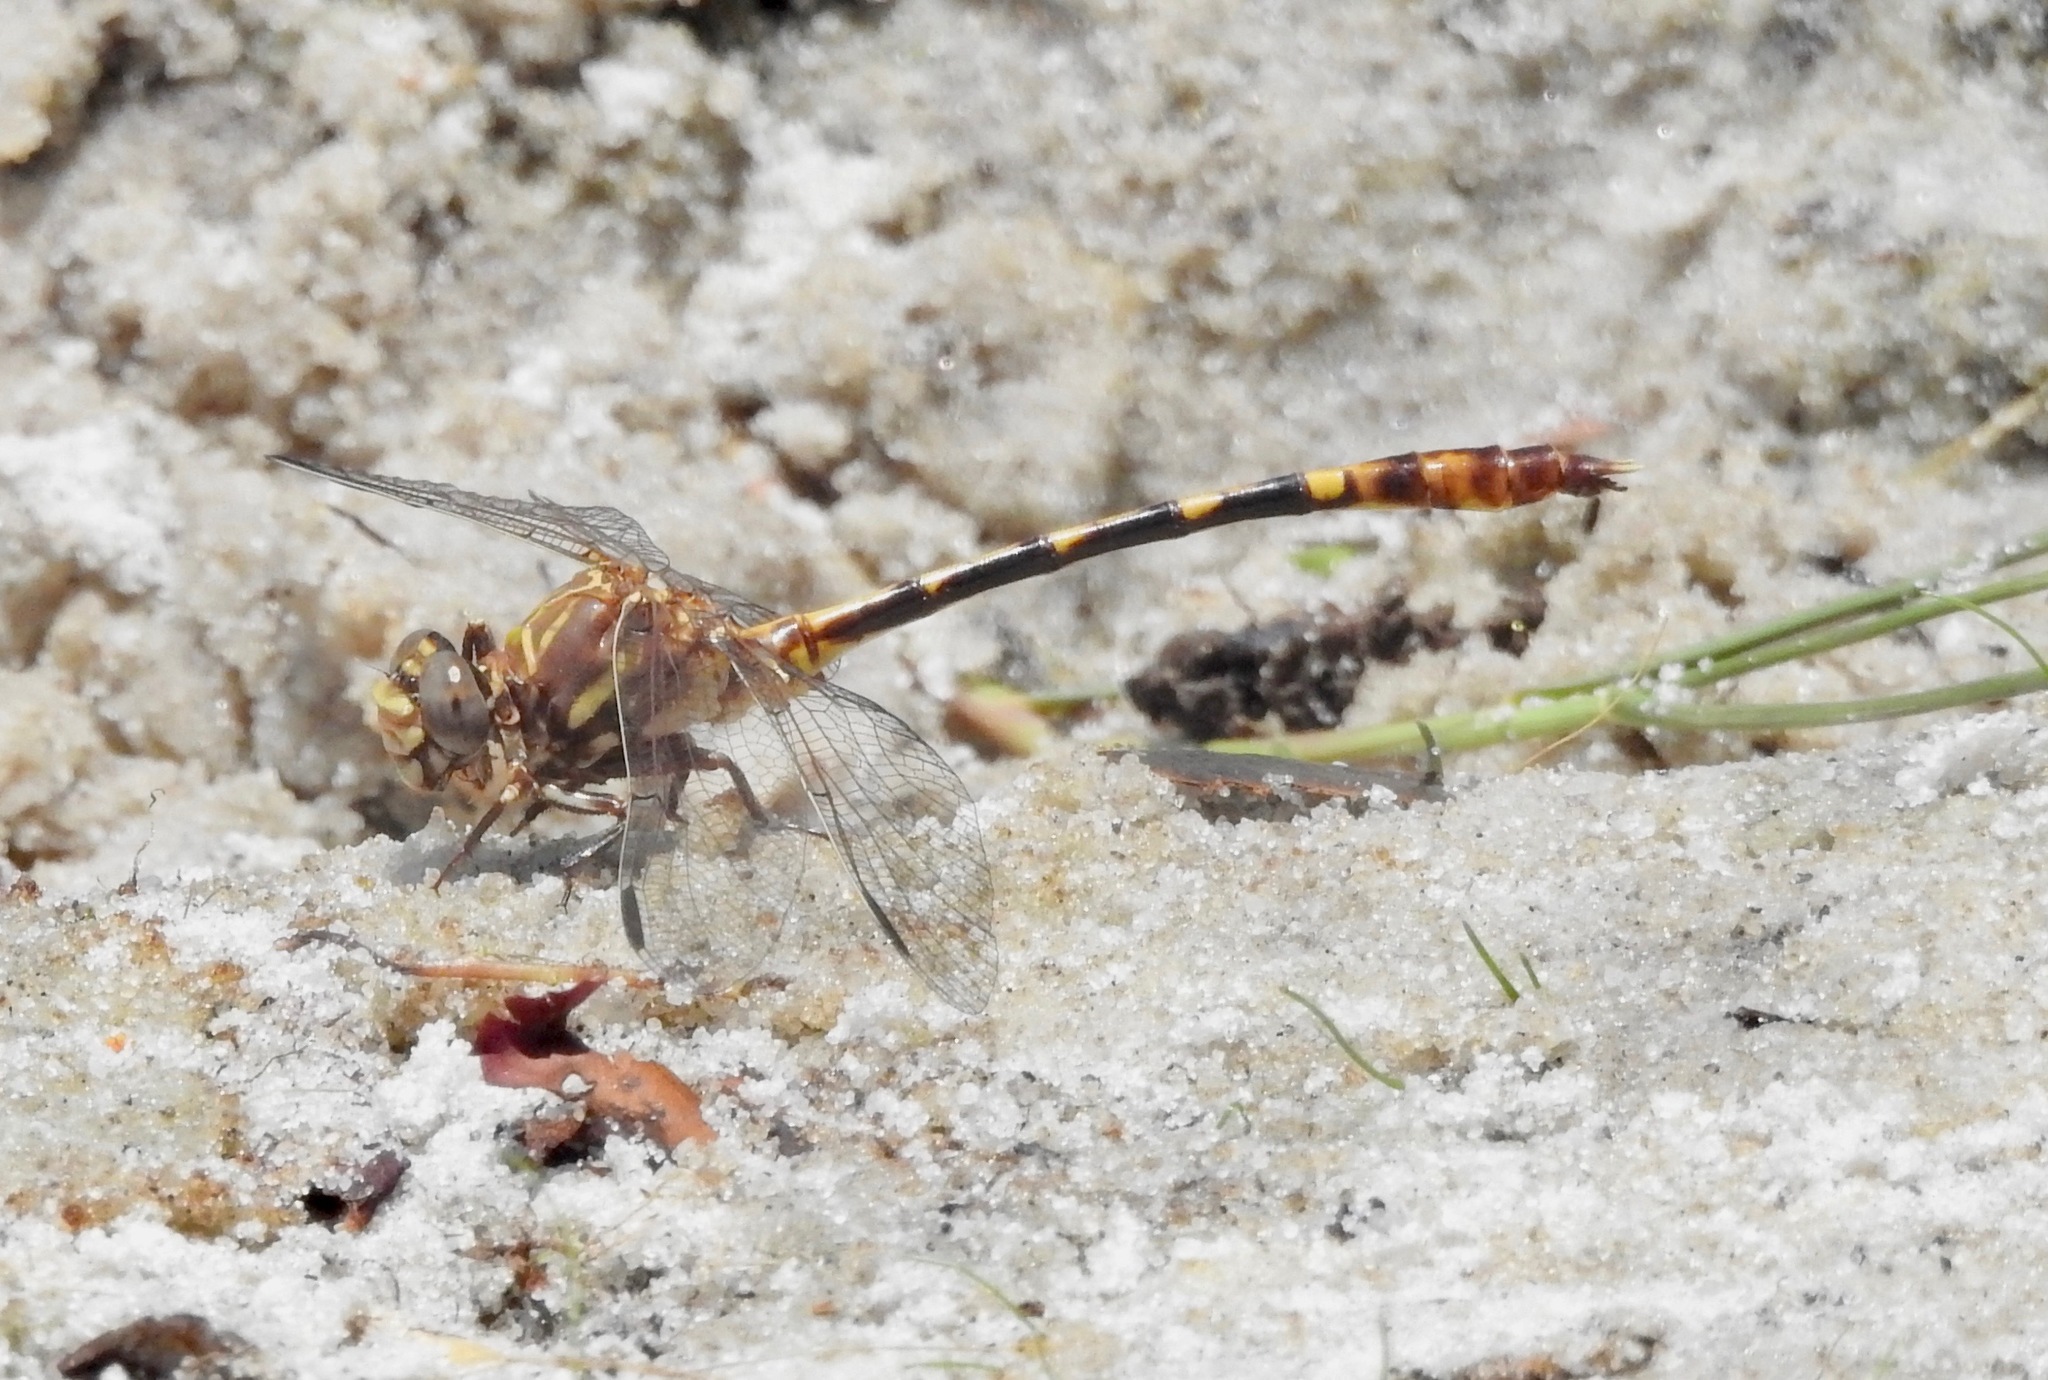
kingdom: Animalia
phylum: Arthropoda
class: Insecta
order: Odonata
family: Gomphidae
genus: Progomphus
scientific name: Progomphus alachuensis
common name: Tawny sanddragon
